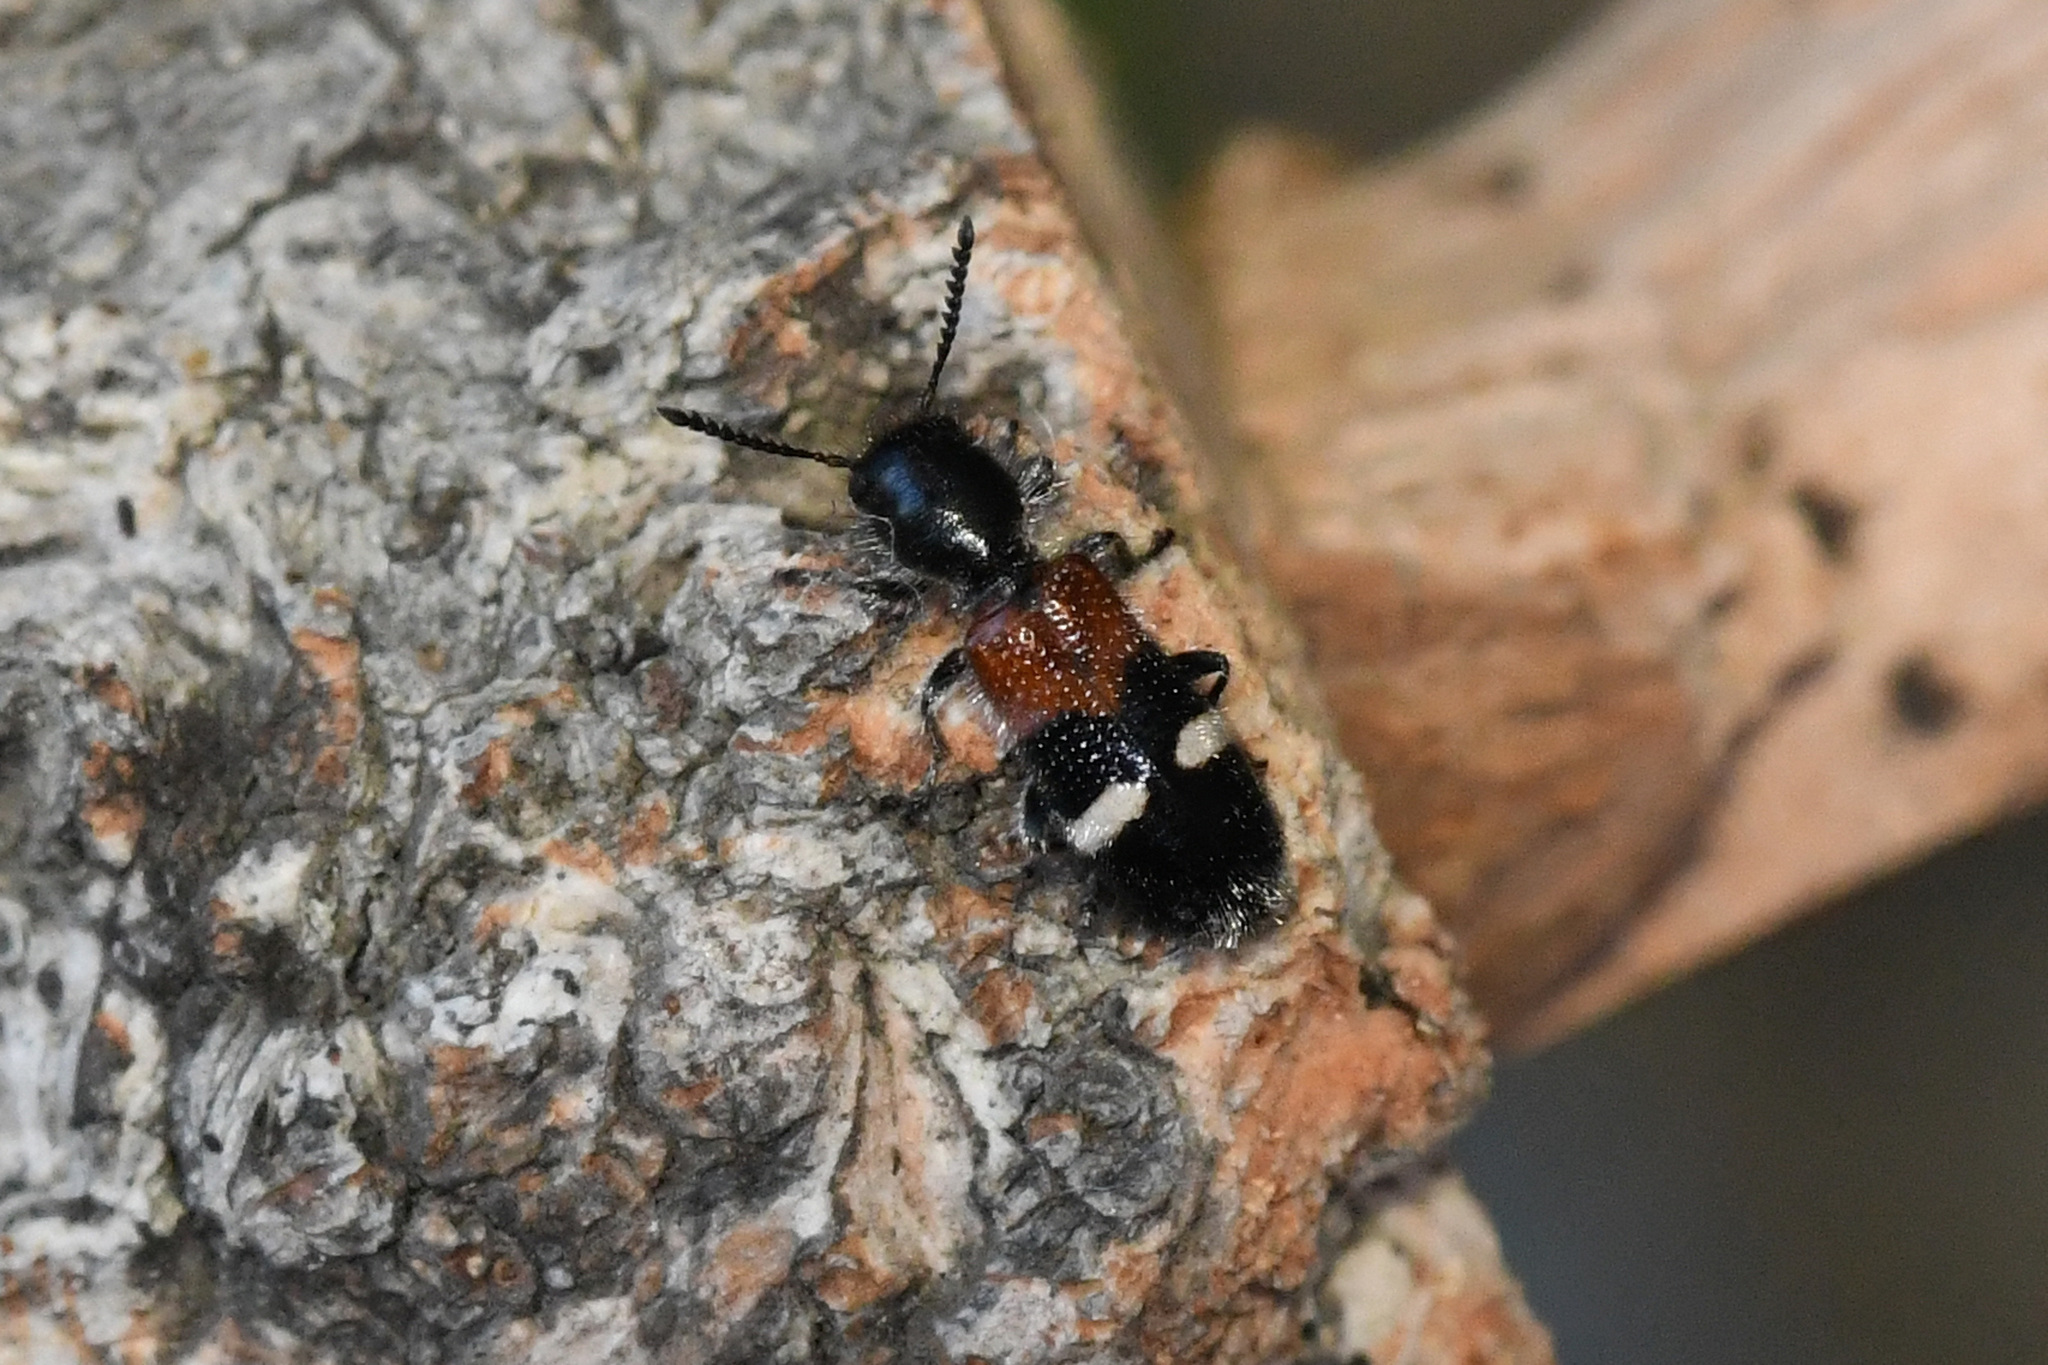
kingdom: Animalia
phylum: Arthropoda
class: Insecta
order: Coleoptera
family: Cleridae
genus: Tilloidea
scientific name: Tilloidea unifasciata
